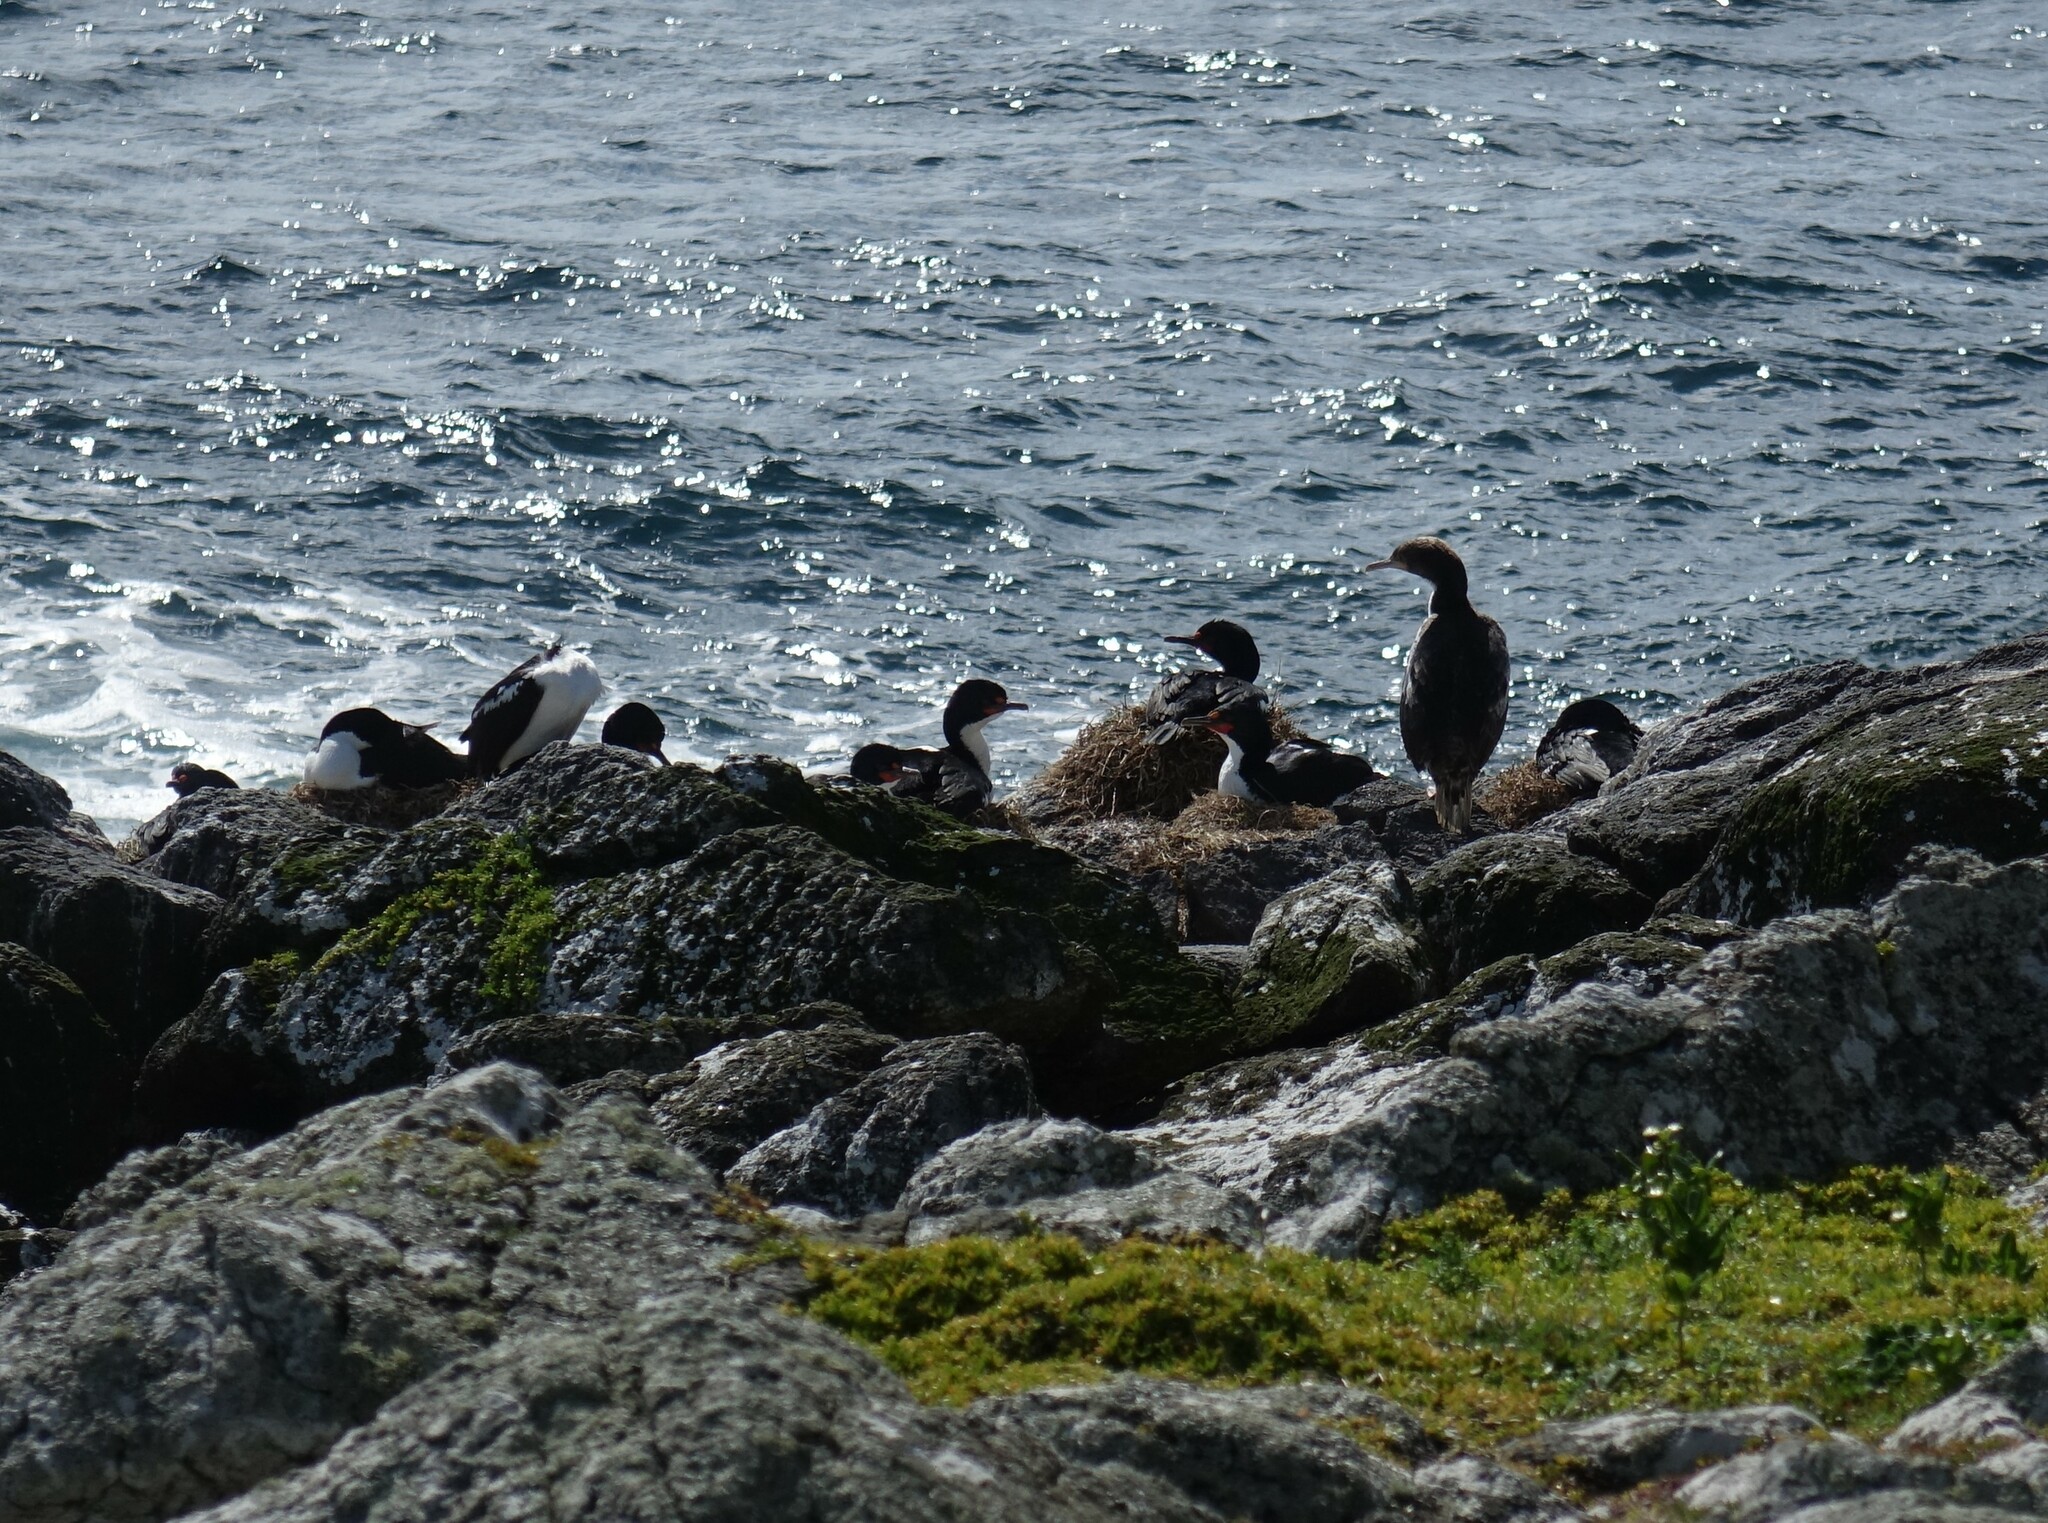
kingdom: Animalia
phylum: Chordata
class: Aves
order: Suliformes
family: Phalacrocoracidae
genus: Leucocarbo
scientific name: Leucocarbo onslowi
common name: Chatham shag
